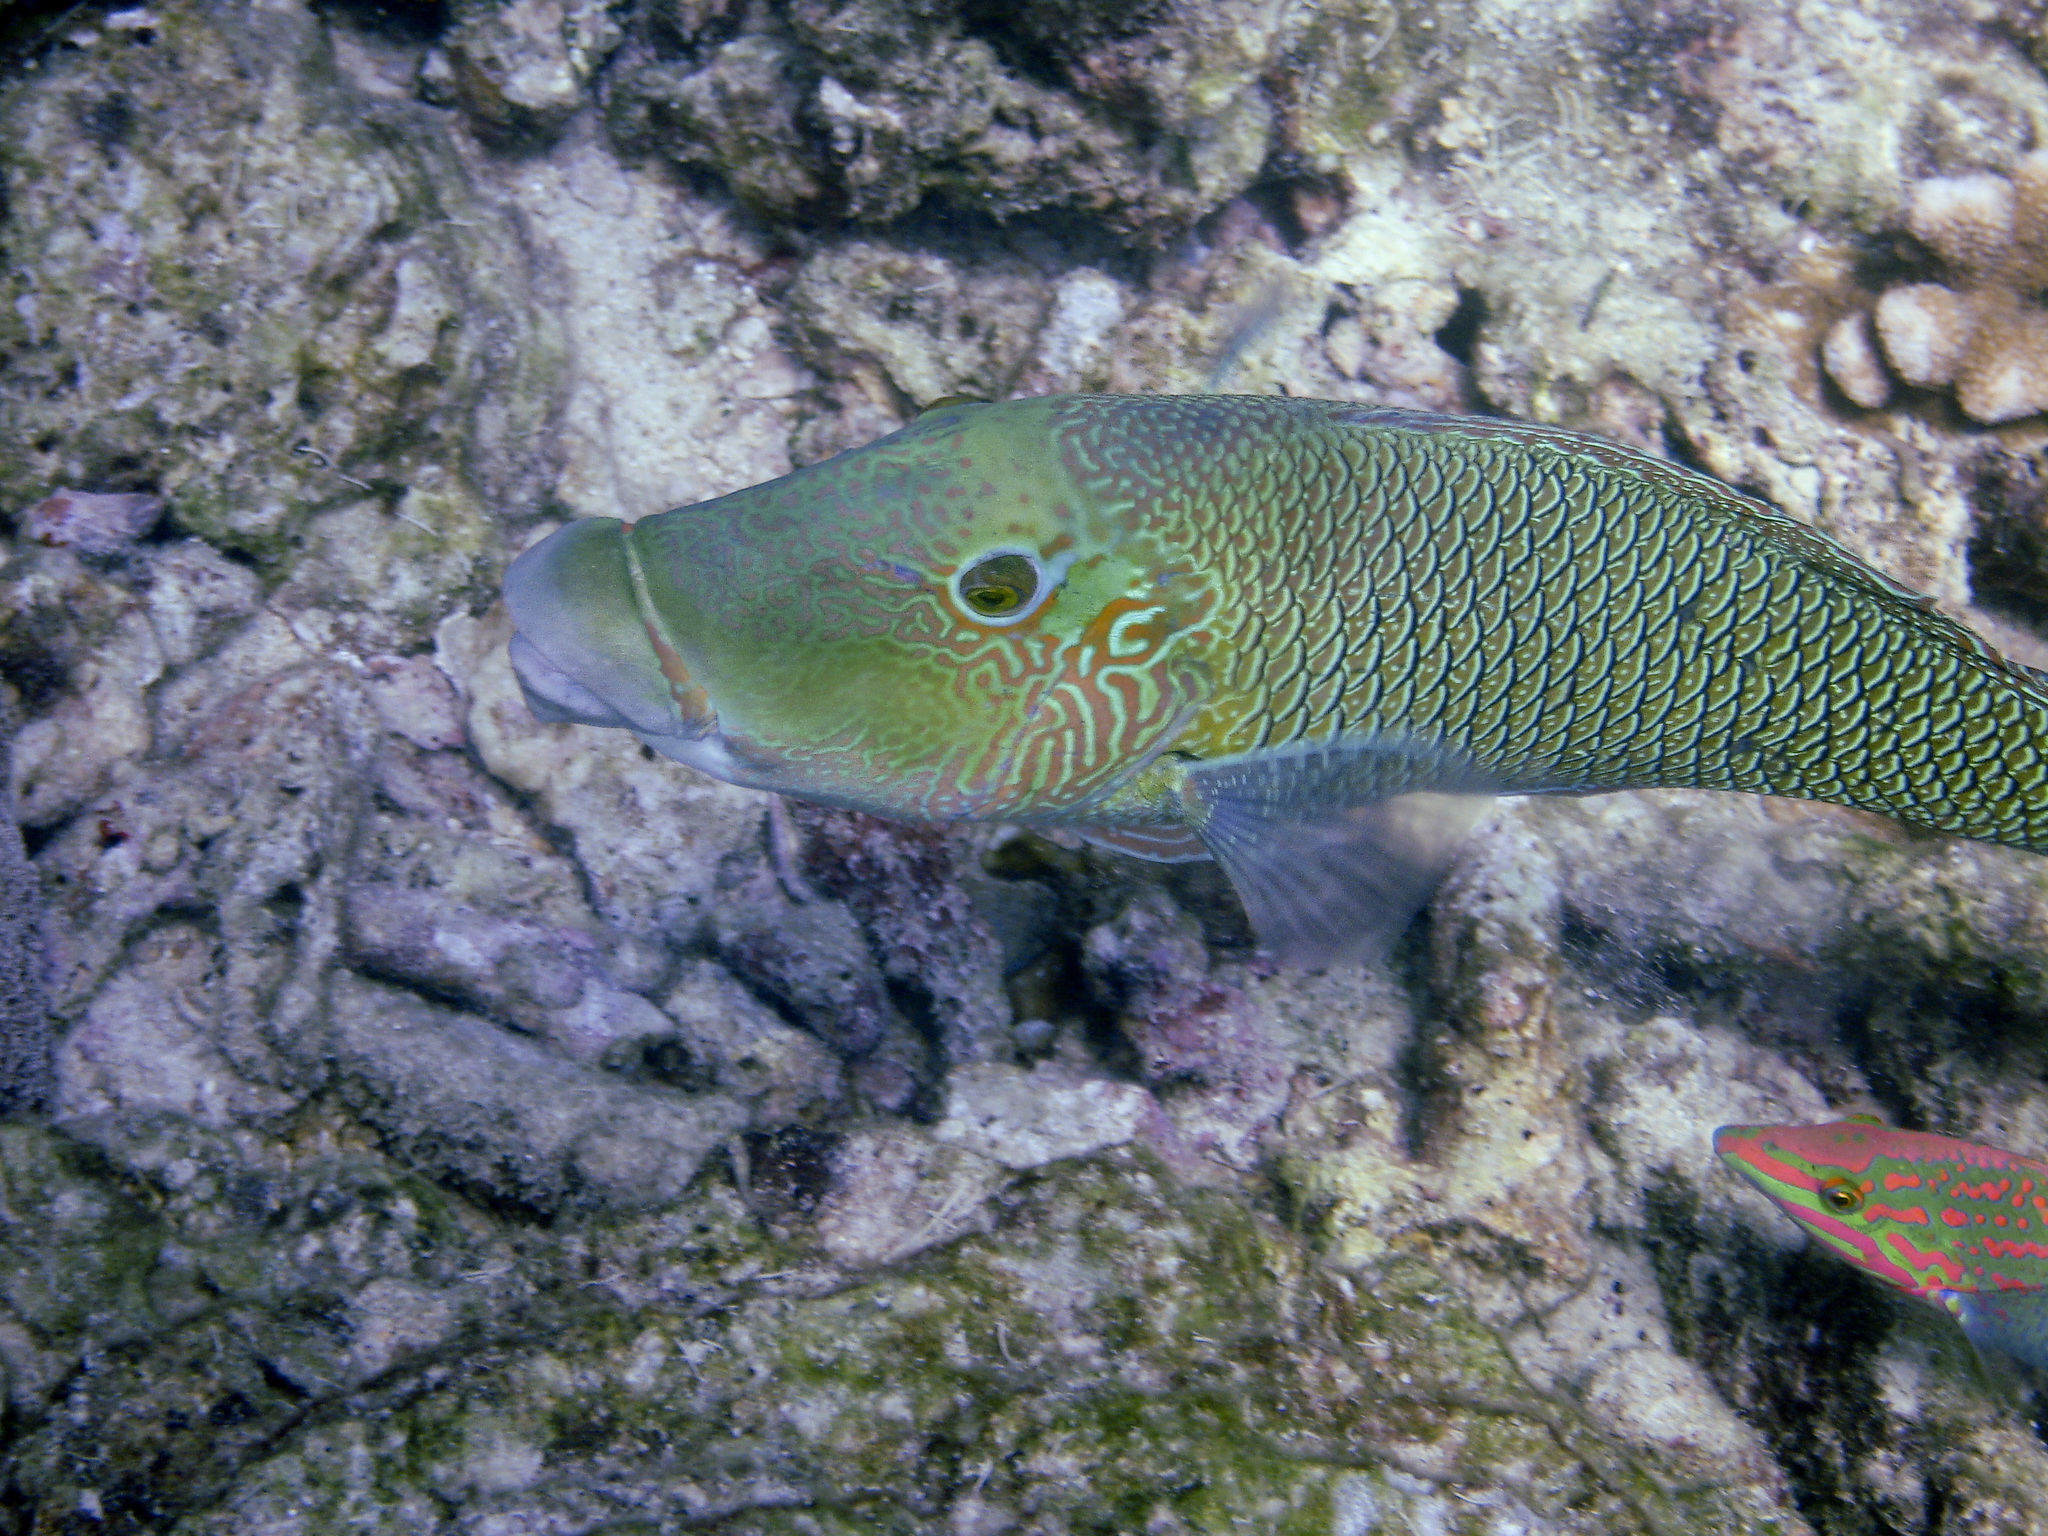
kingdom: Animalia
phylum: Chordata
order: Perciformes
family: Labridae
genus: Hemigymnus
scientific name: Hemigymnus melapterus
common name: Blackeye thicklip
